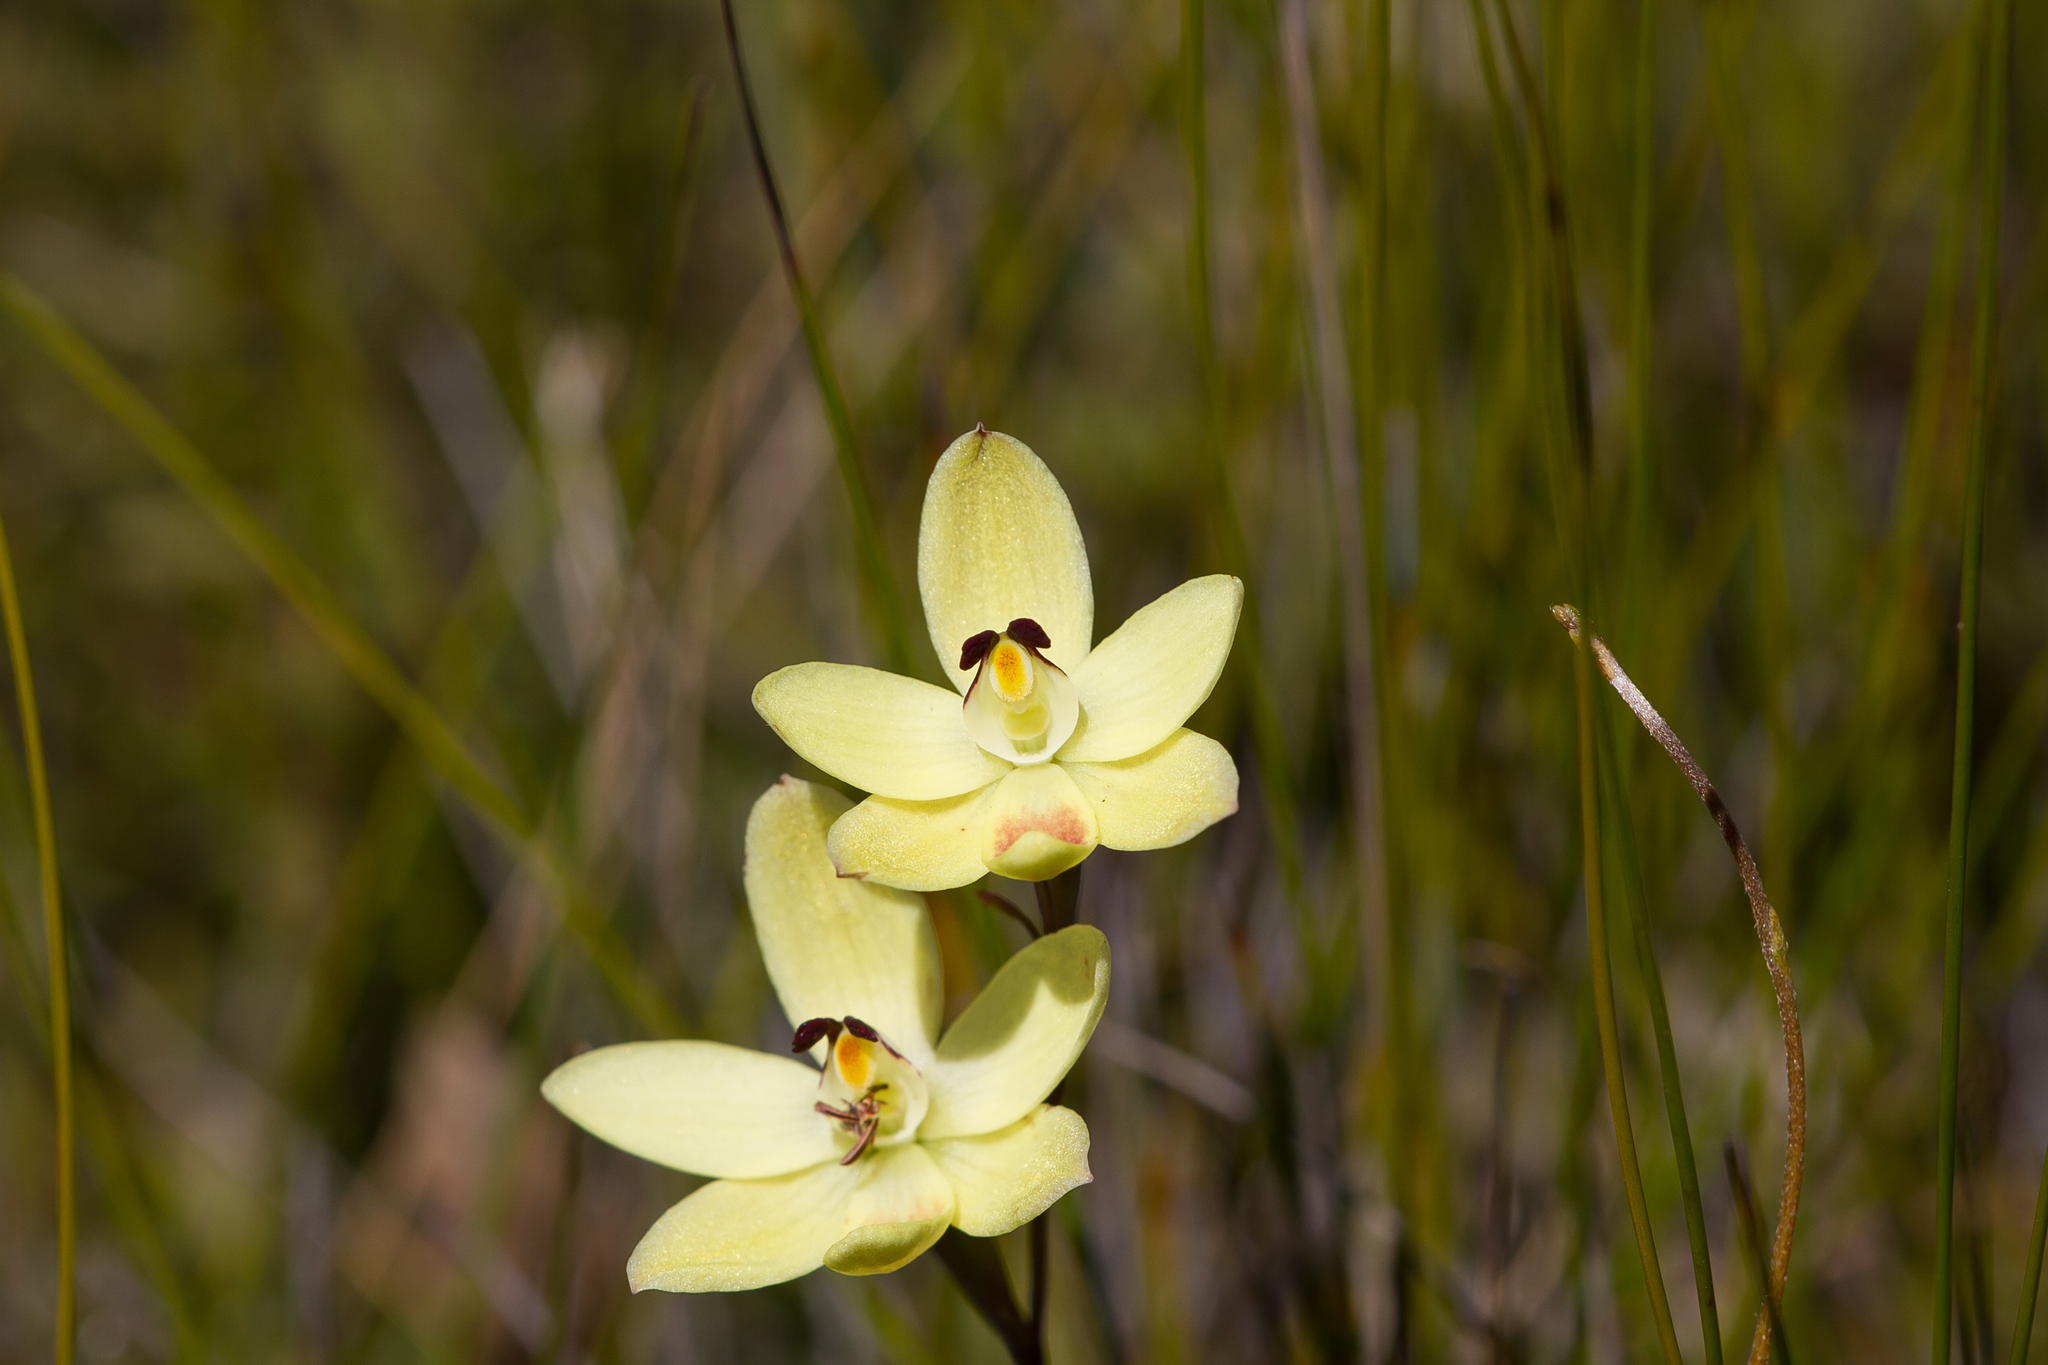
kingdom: Plantae
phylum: Tracheophyta
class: Liliopsida
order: Asparagales
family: Orchidaceae
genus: Thelymitra
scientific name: Thelymitra antennifera
